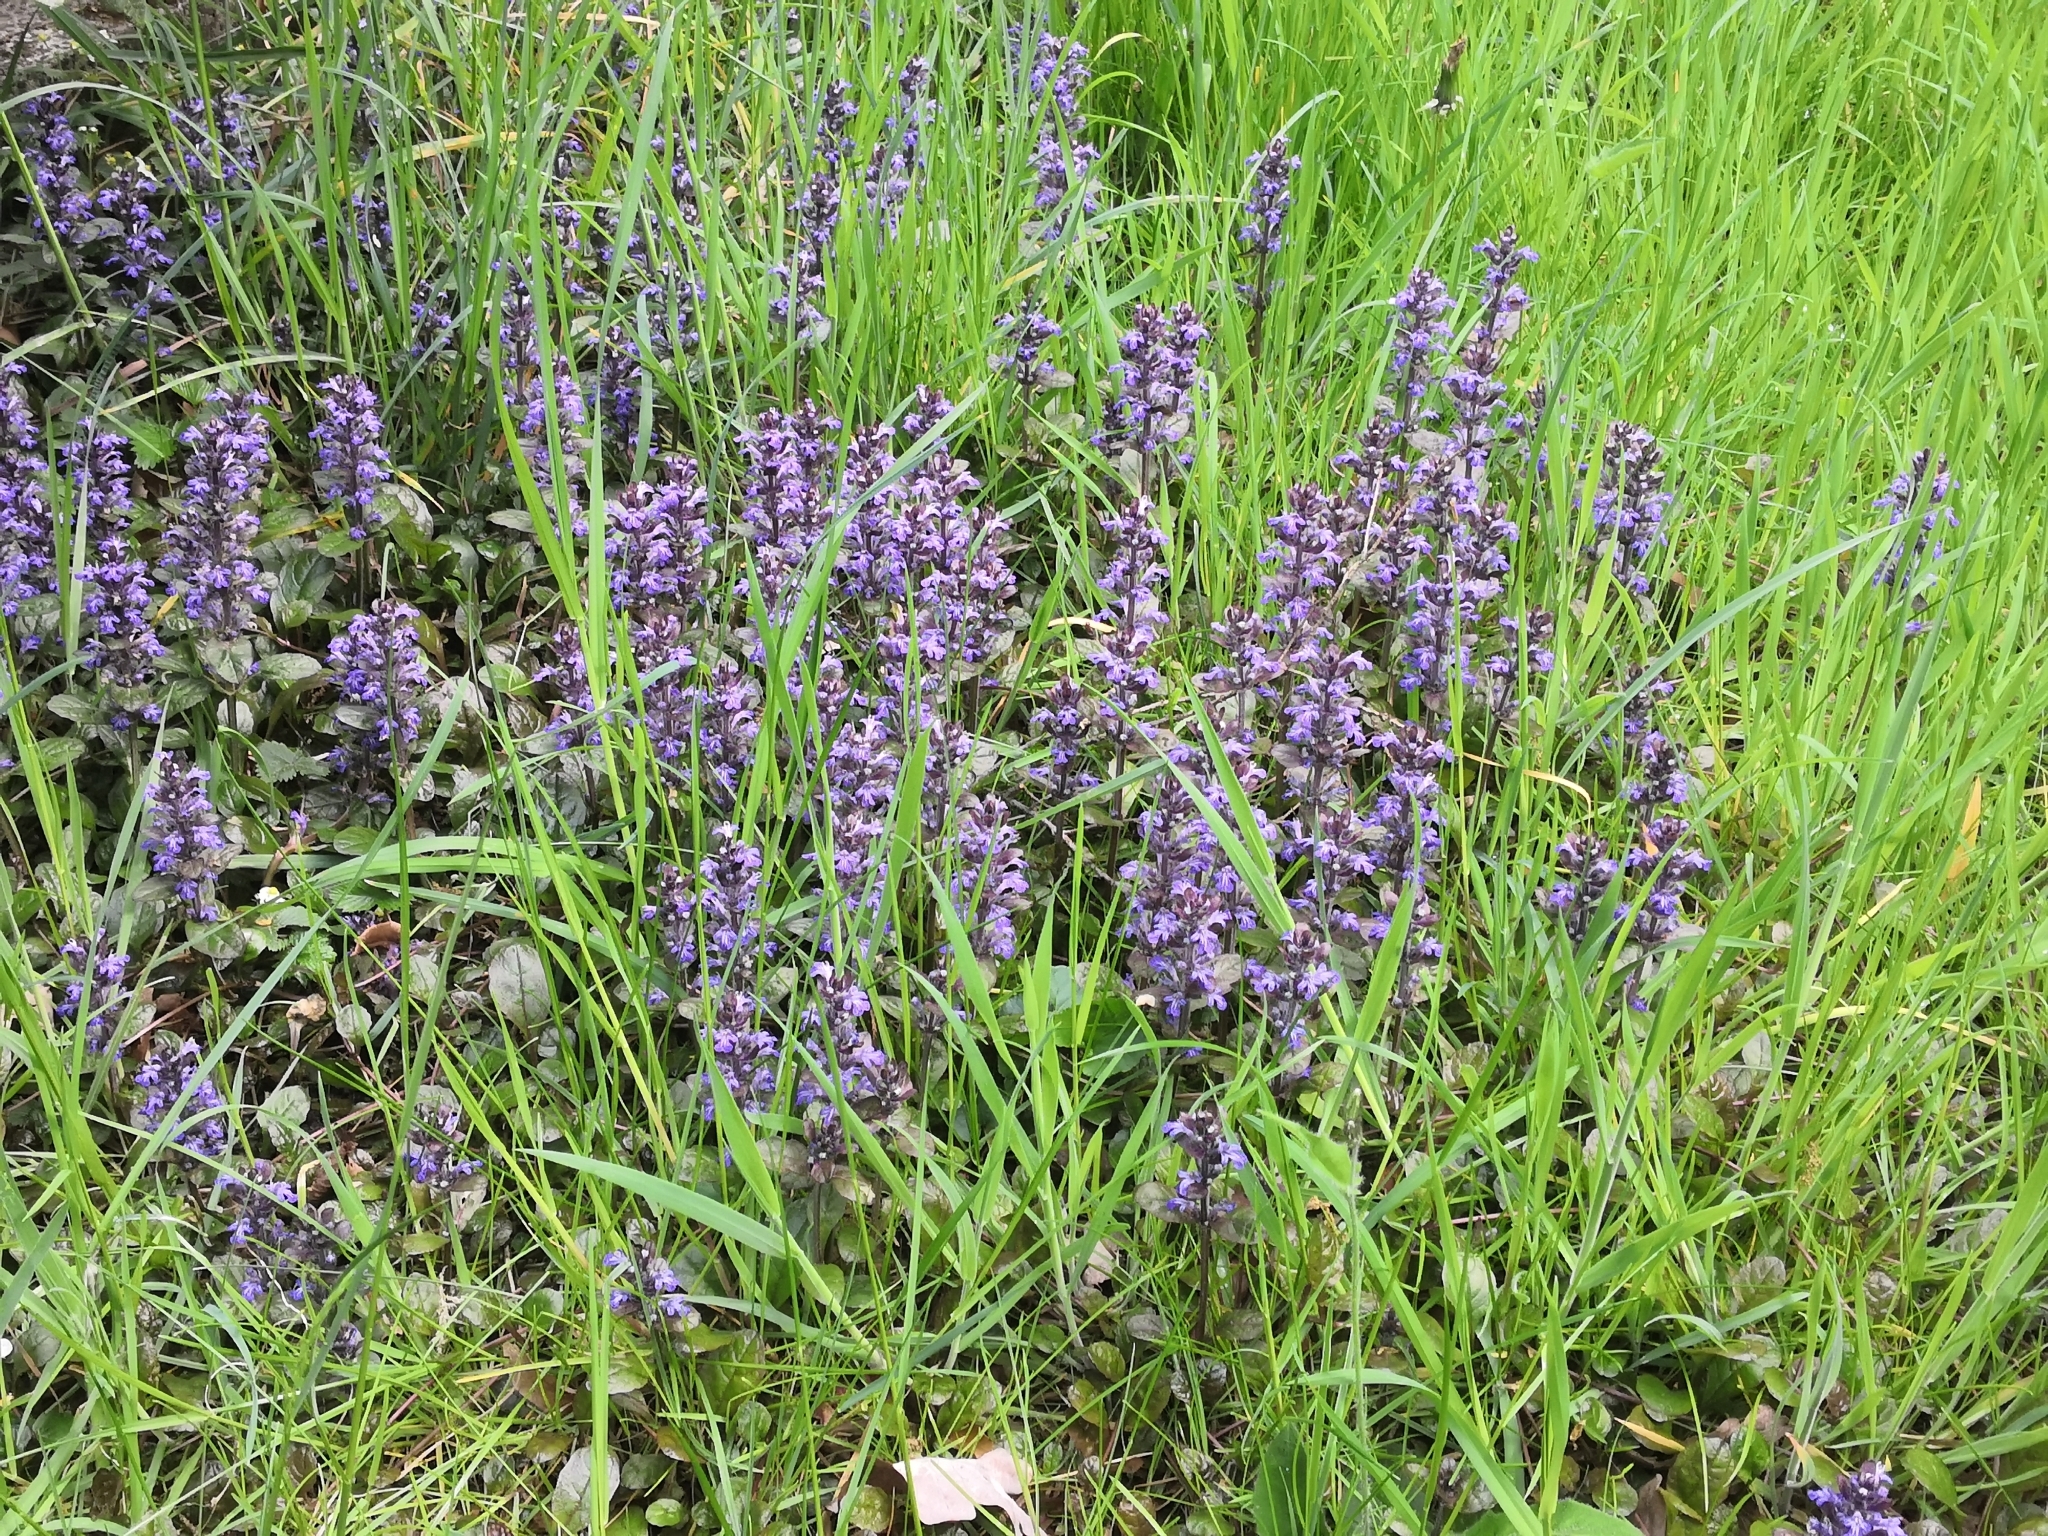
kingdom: Plantae
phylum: Tracheophyta
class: Magnoliopsida
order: Lamiales
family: Lamiaceae
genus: Ajuga
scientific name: Ajuga reptans
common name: Bugle
